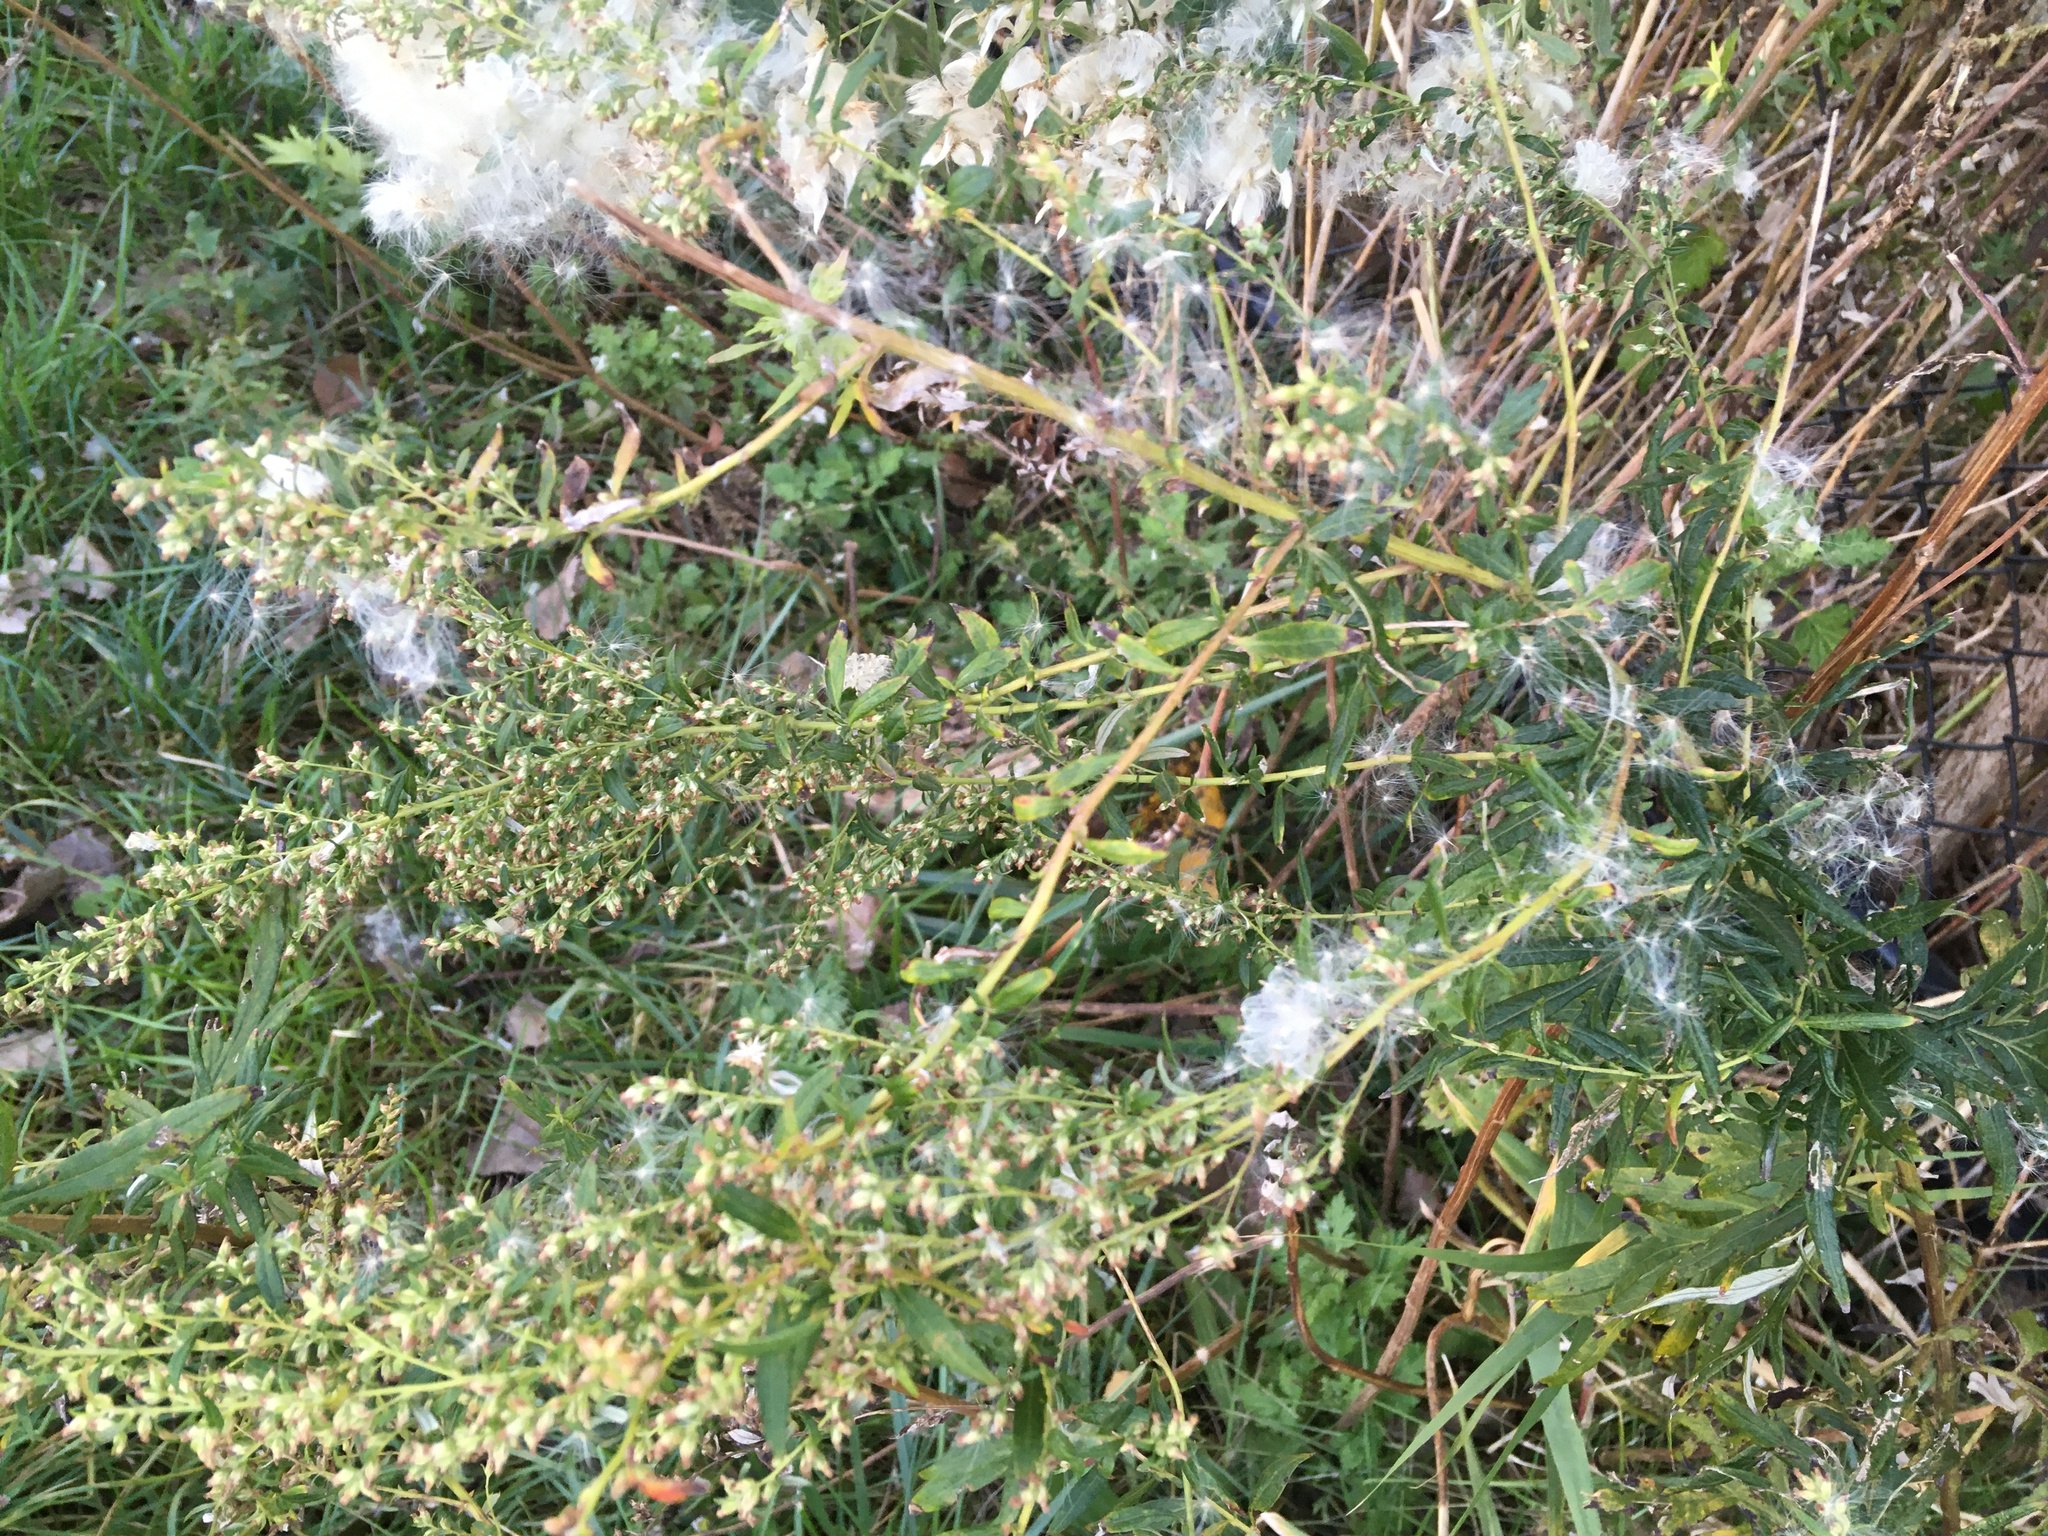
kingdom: Plantae
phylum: Tracheophyta
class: Magnoliopsida
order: Asterales
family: Asteraceae
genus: Artemisia
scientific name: Artemisia vulgaris
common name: Mugwort
